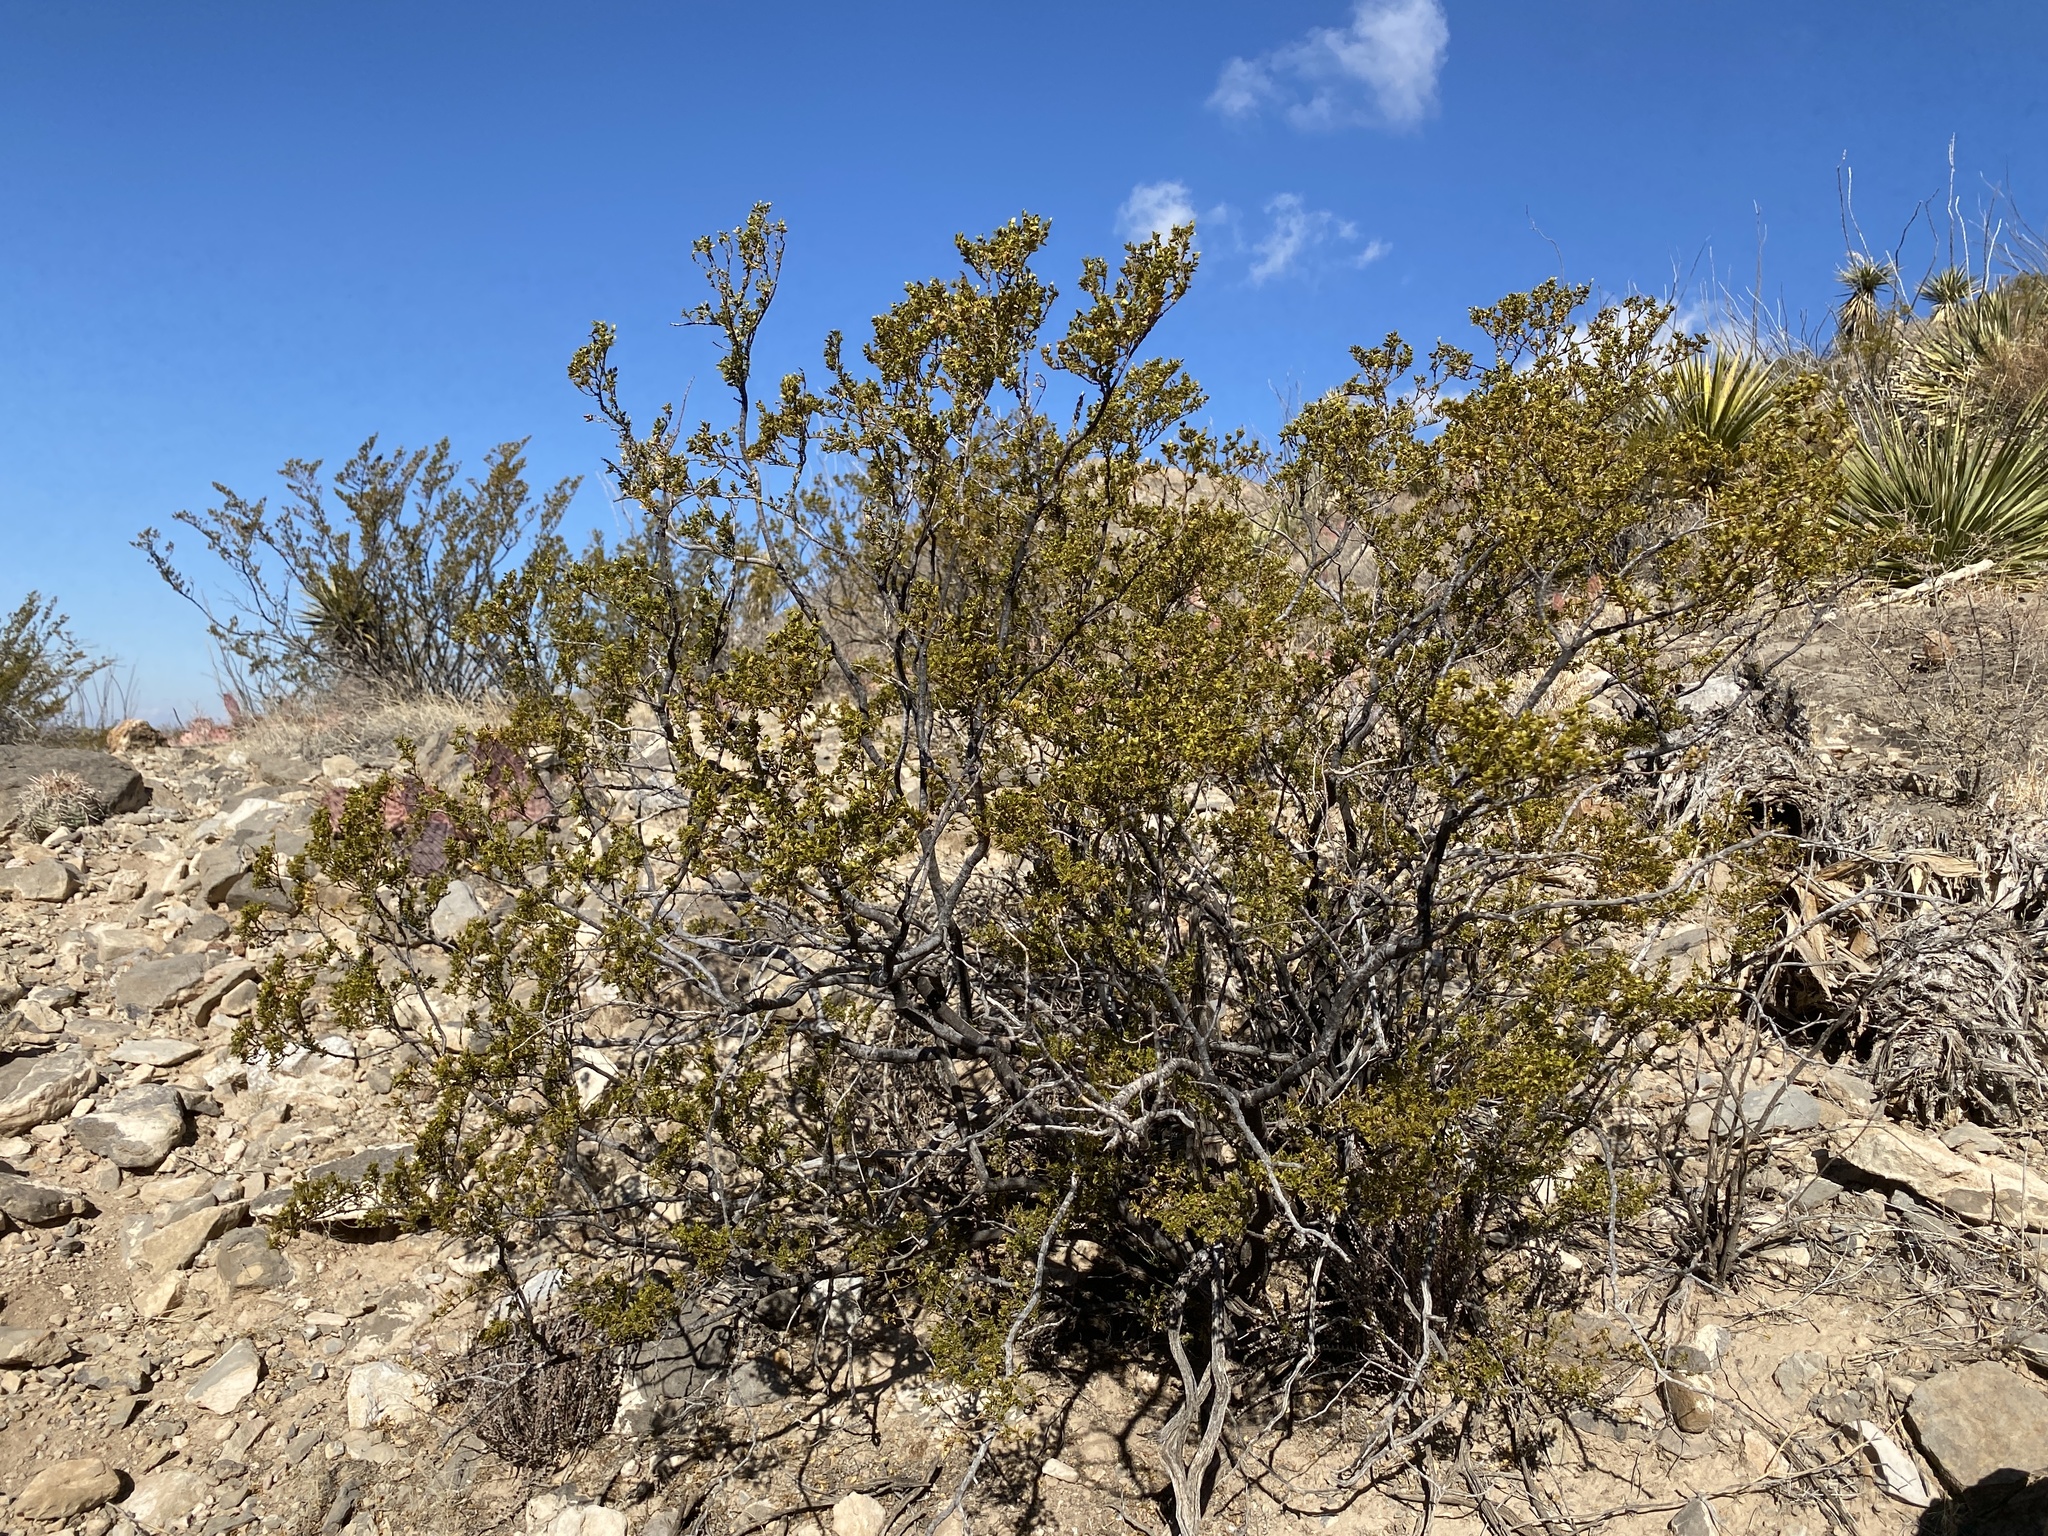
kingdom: Plantae
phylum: Tracheophyta
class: Magnoliopsida
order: Zygophyllales
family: Zygophyllaceae
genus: Larrea
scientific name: Larrea tridentata
